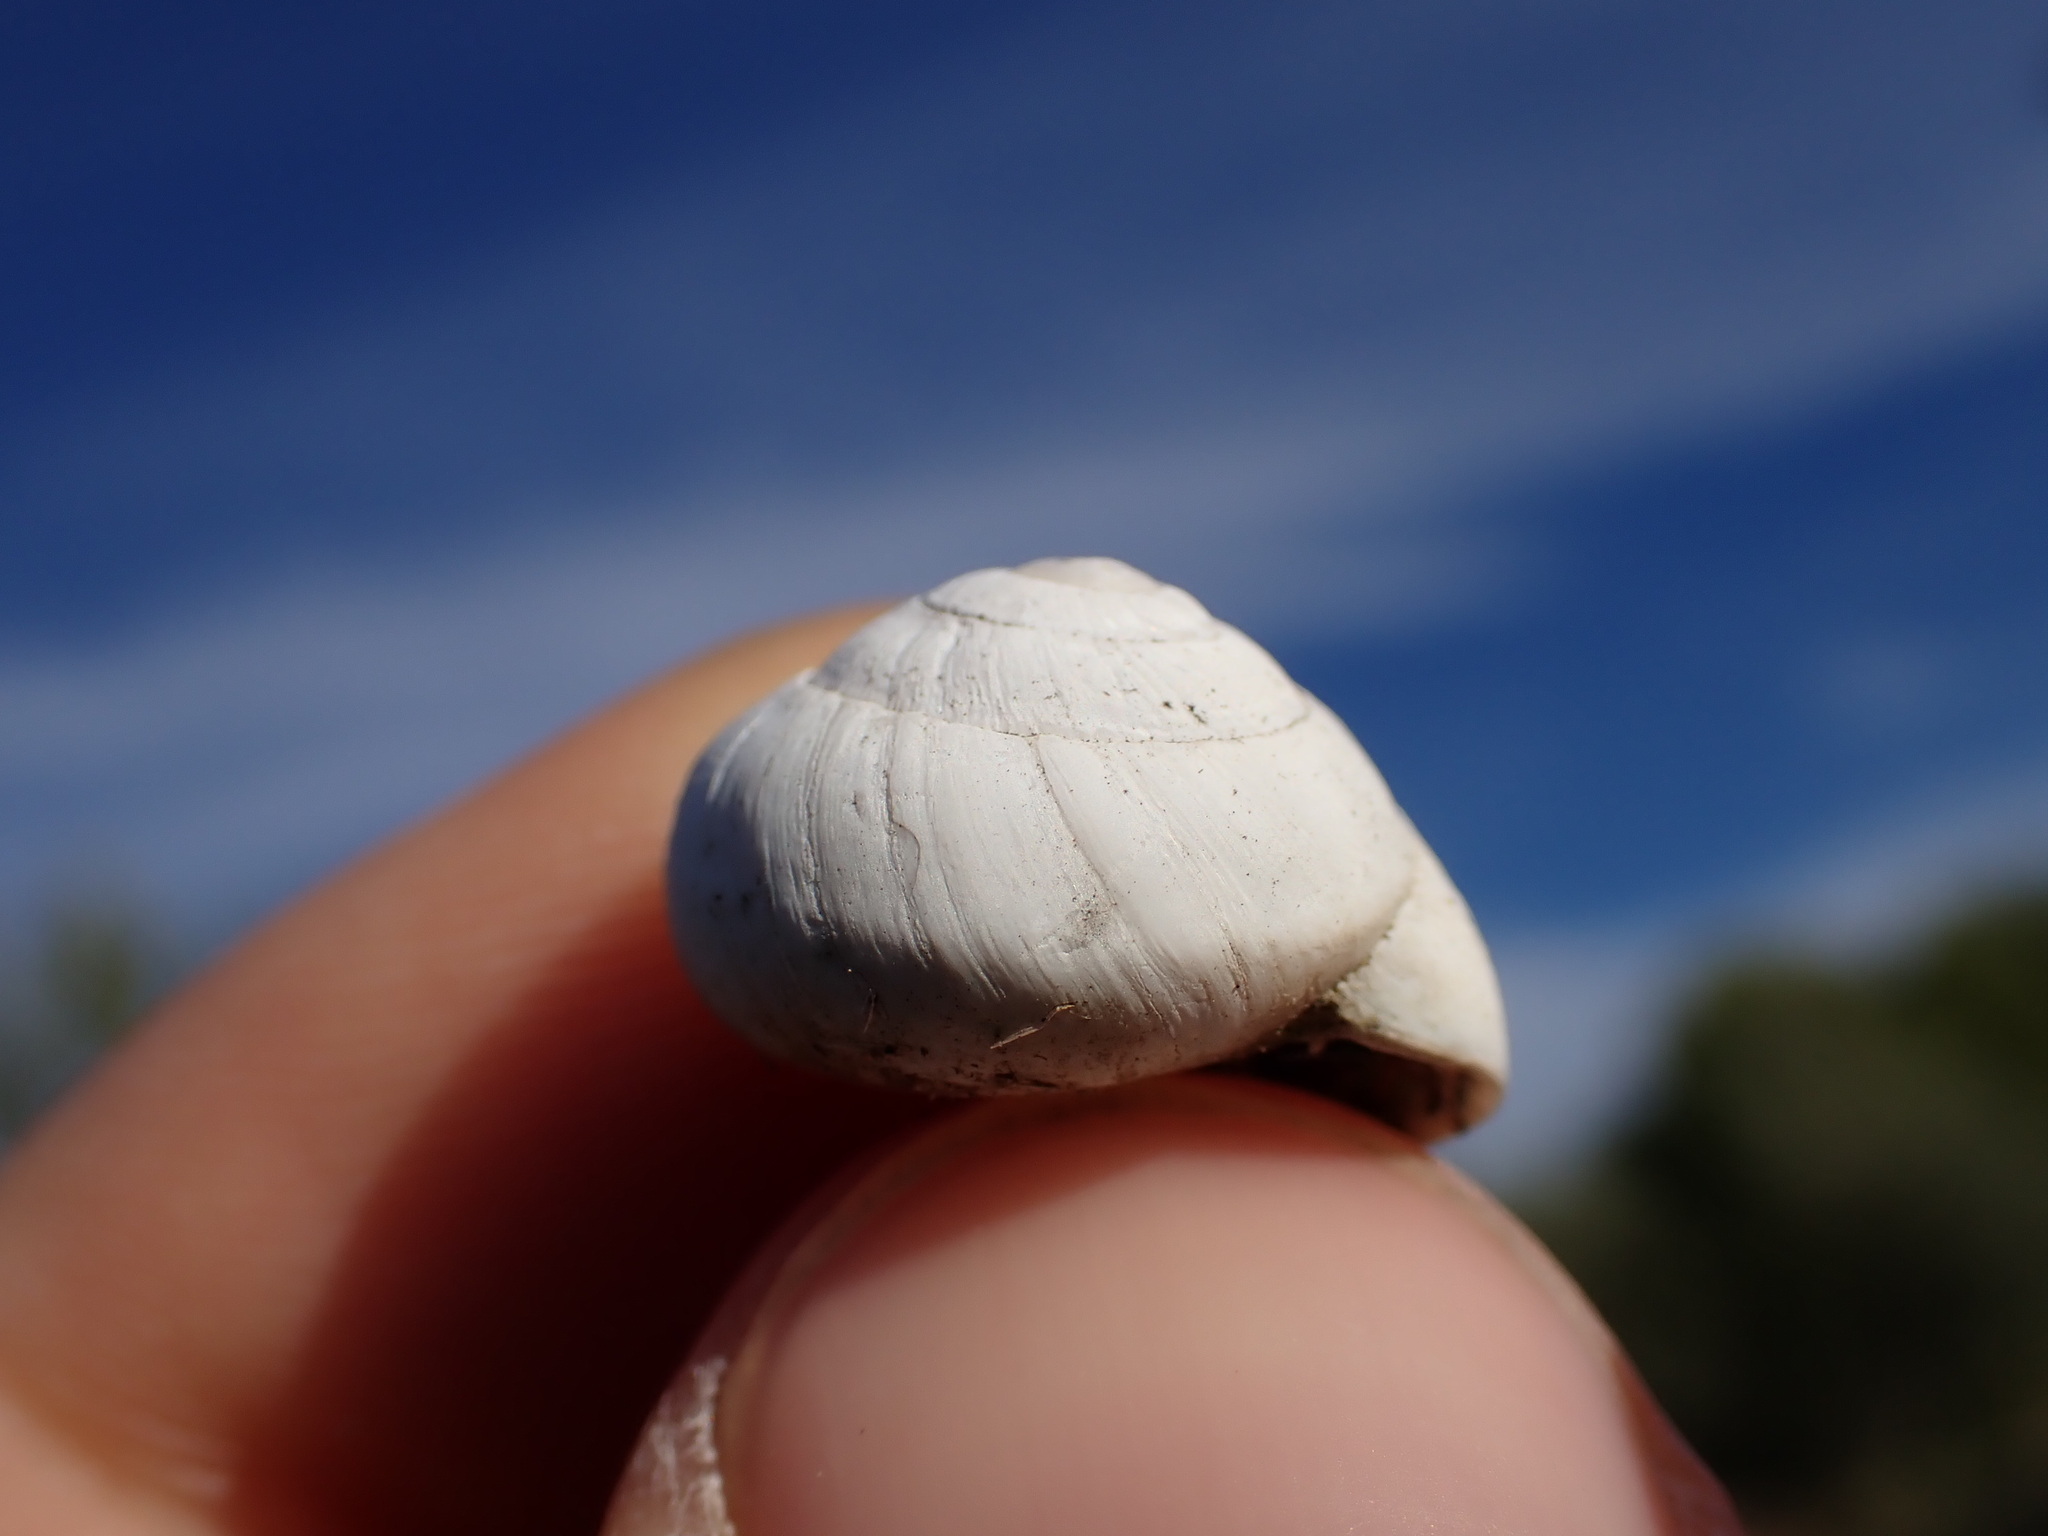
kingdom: Animalia
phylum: Mollusca
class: Gastropoda
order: Stylommatophora
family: Sphincterochilidae
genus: Sphincterochila
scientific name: Sphincterochila candidissima
